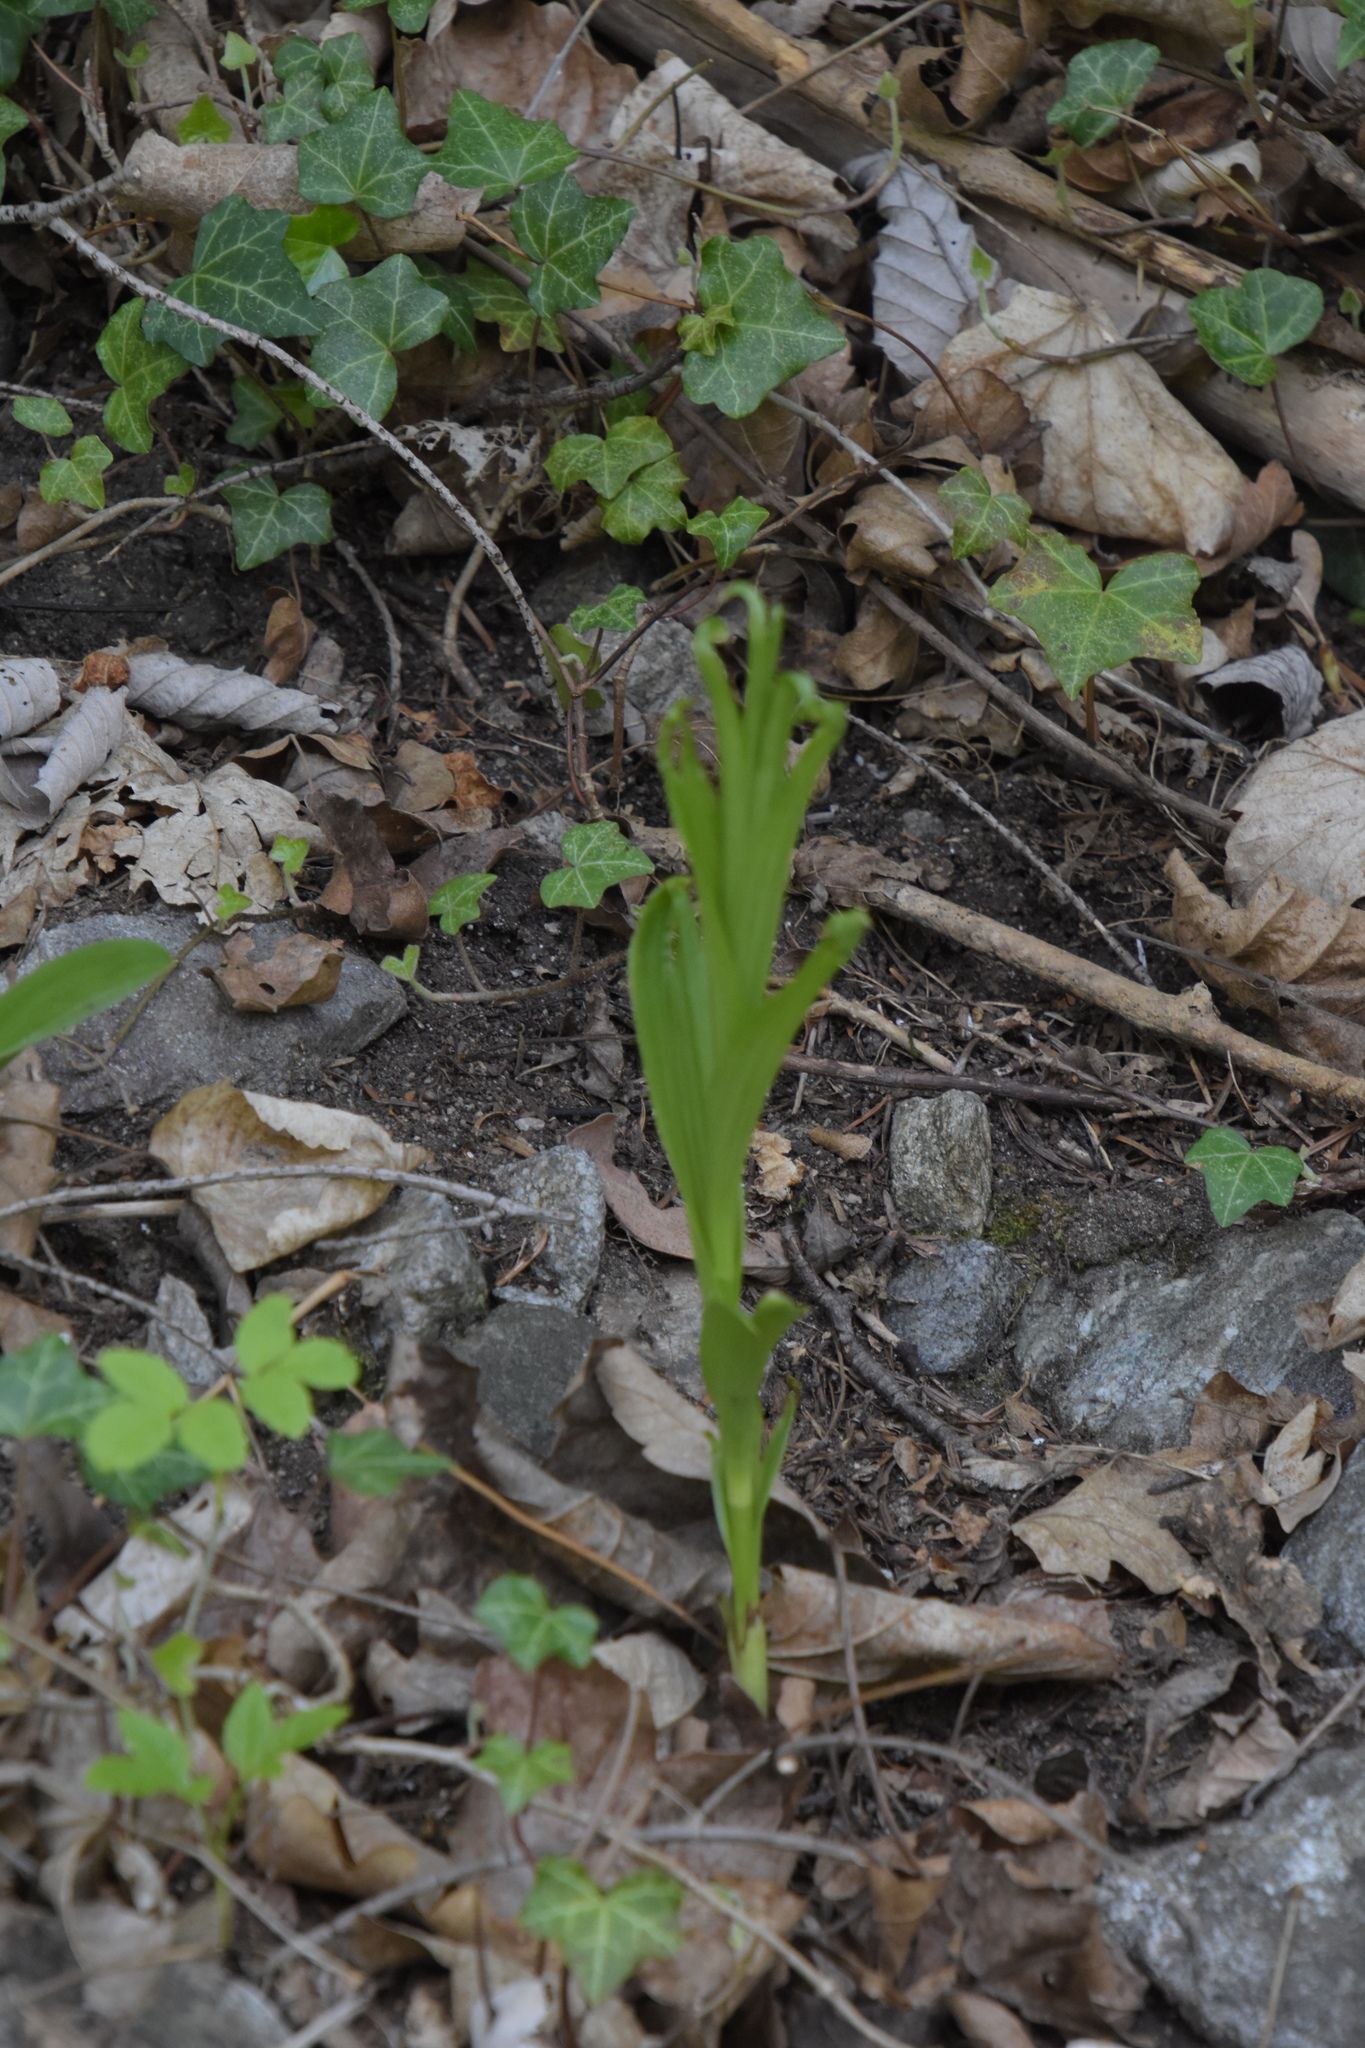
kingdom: Plantae
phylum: Tracheophyta
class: Liliopsida
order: Asparagales
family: Orchidaceae
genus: Cephalanthera
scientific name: Cephalanthera longifolia
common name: Narrow-leaved helleborine
